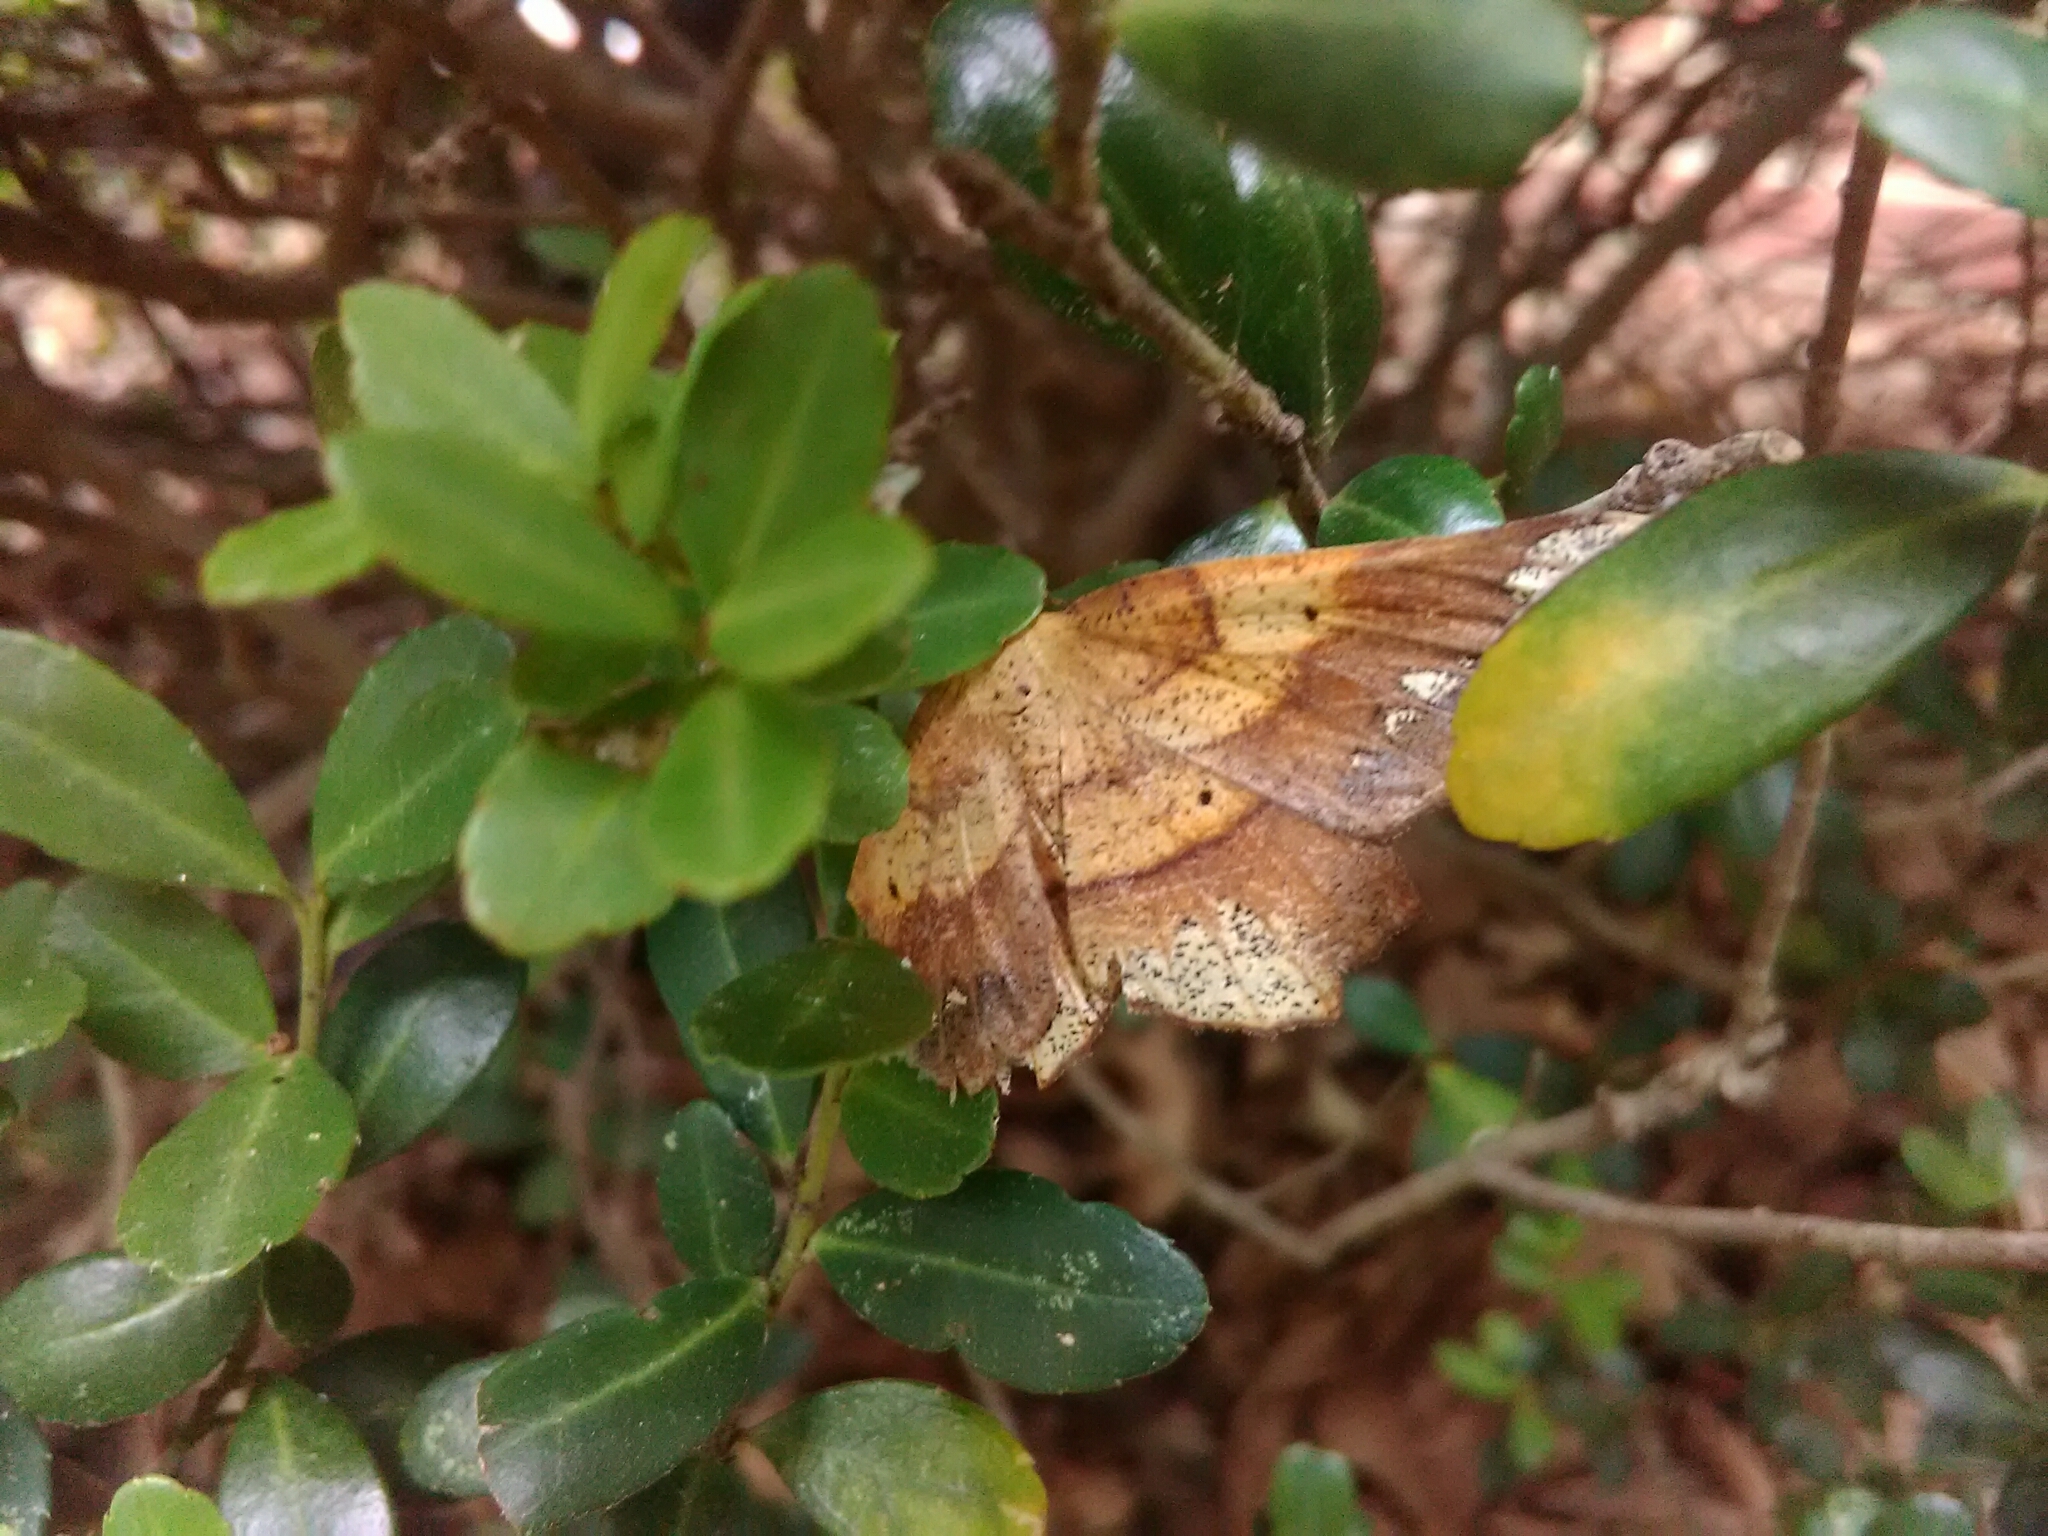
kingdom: Animalia
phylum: Arthropoda
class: Insecta
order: Lepidoptera
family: Geometridae
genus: Euchlaena
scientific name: Euchlaena amoenaria
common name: Deep yellow euchlaena
